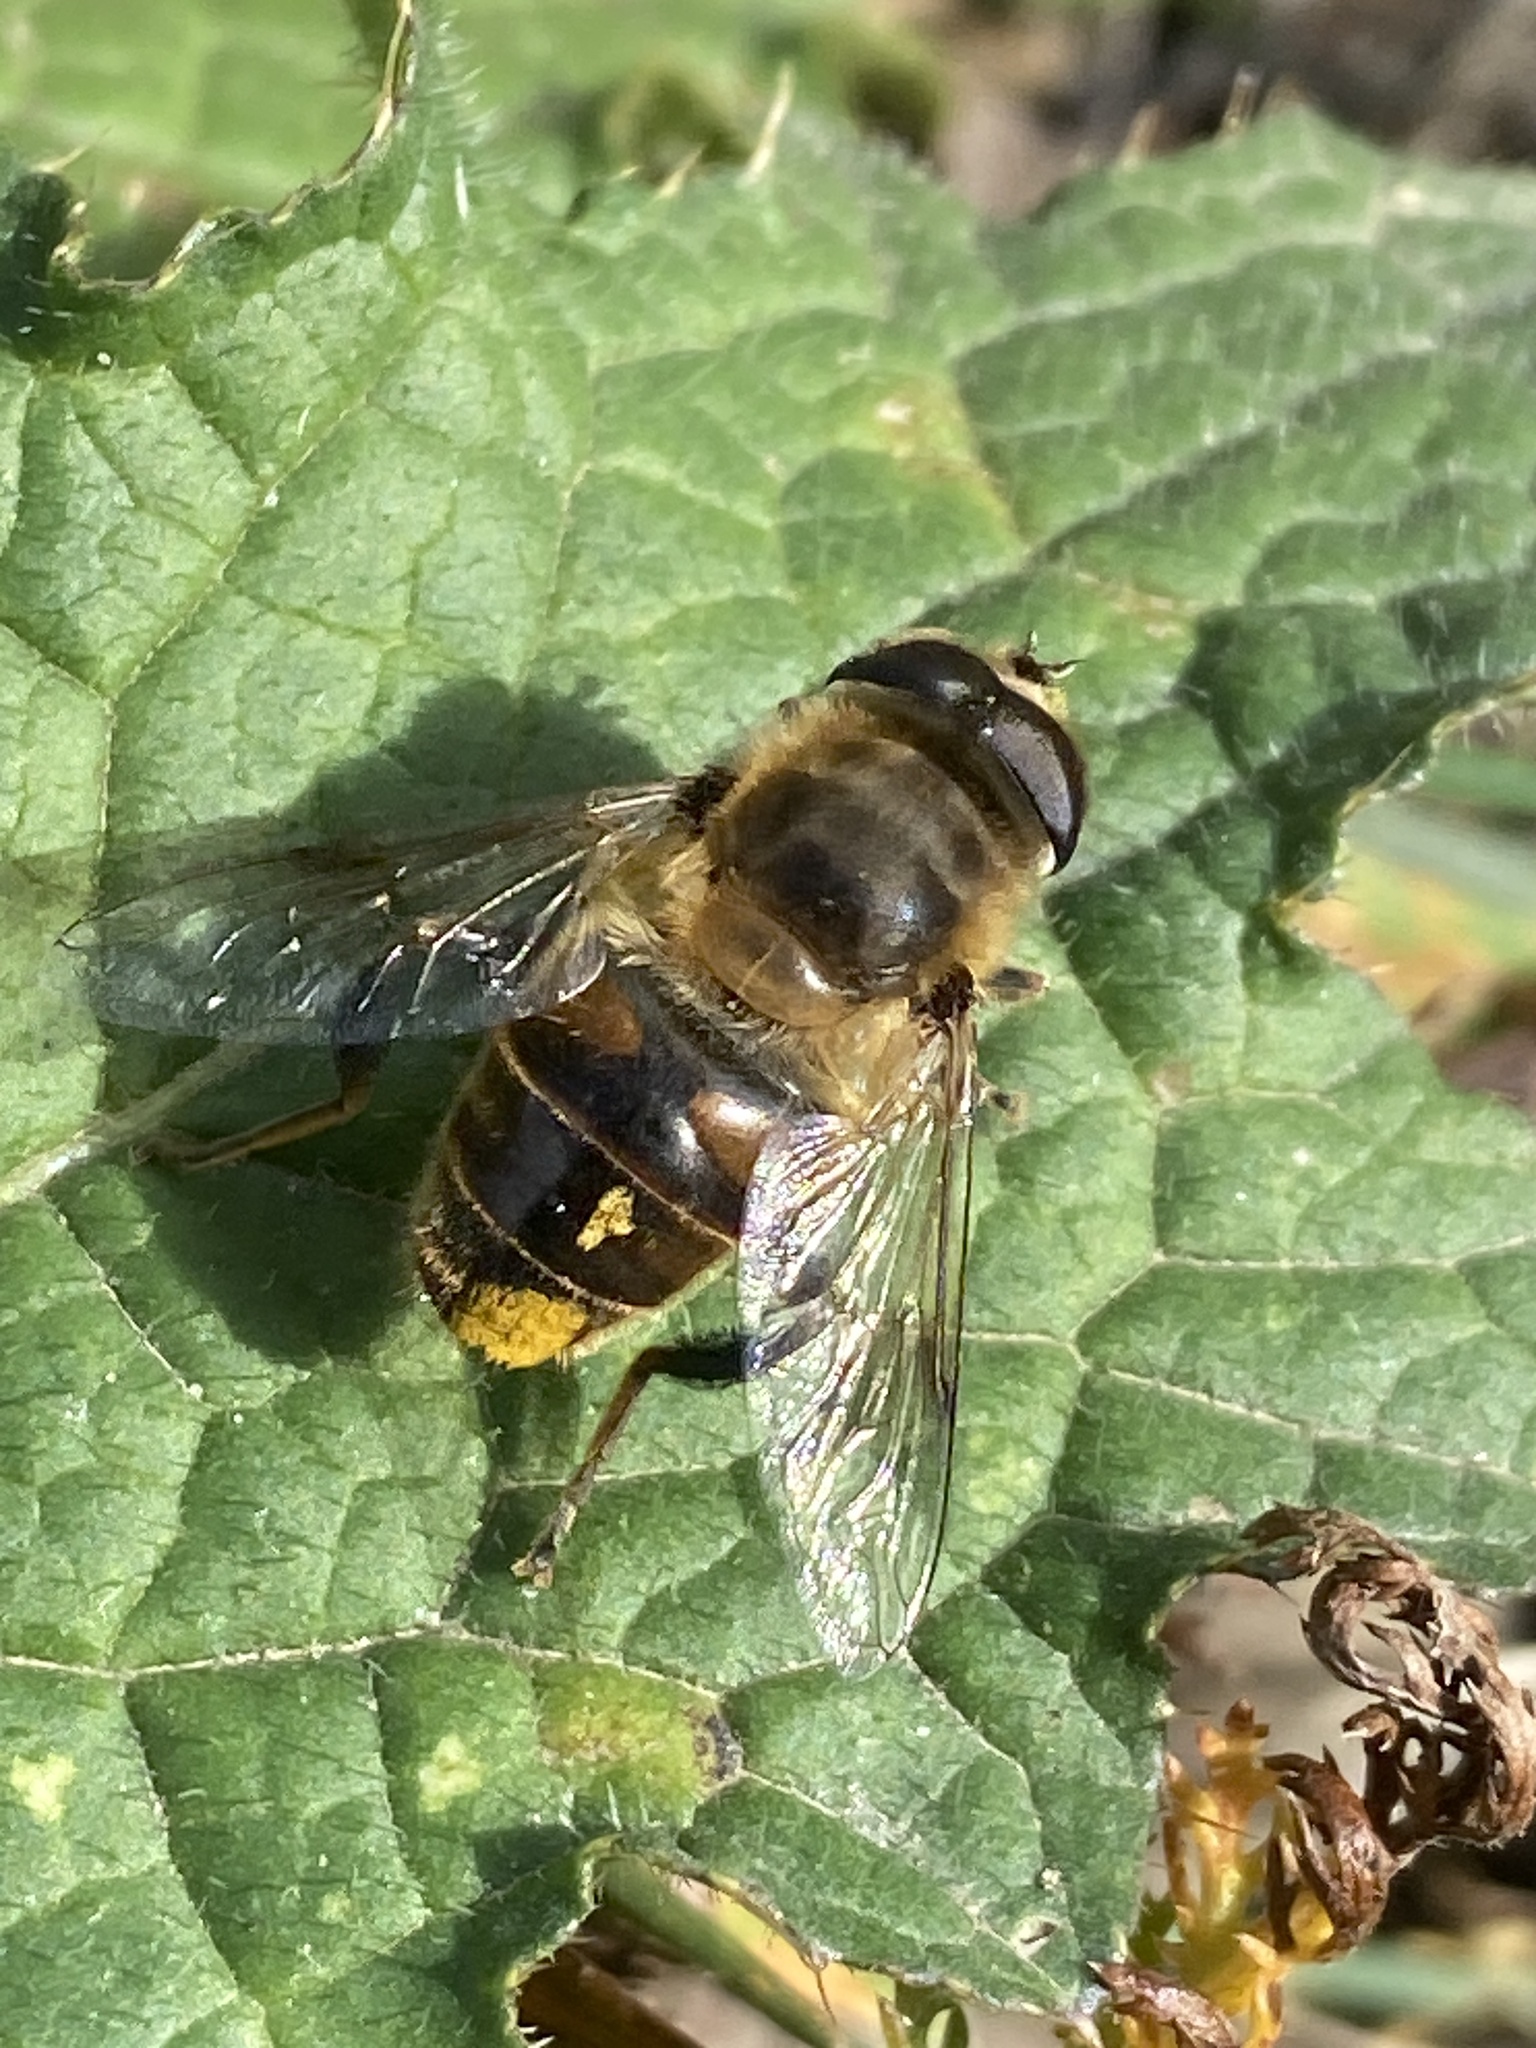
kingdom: Animalia
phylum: Arthropoda
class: Insecta
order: Diptera
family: Syrphidae
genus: Eristalis
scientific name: Eristalis tenax
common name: Drone fly
